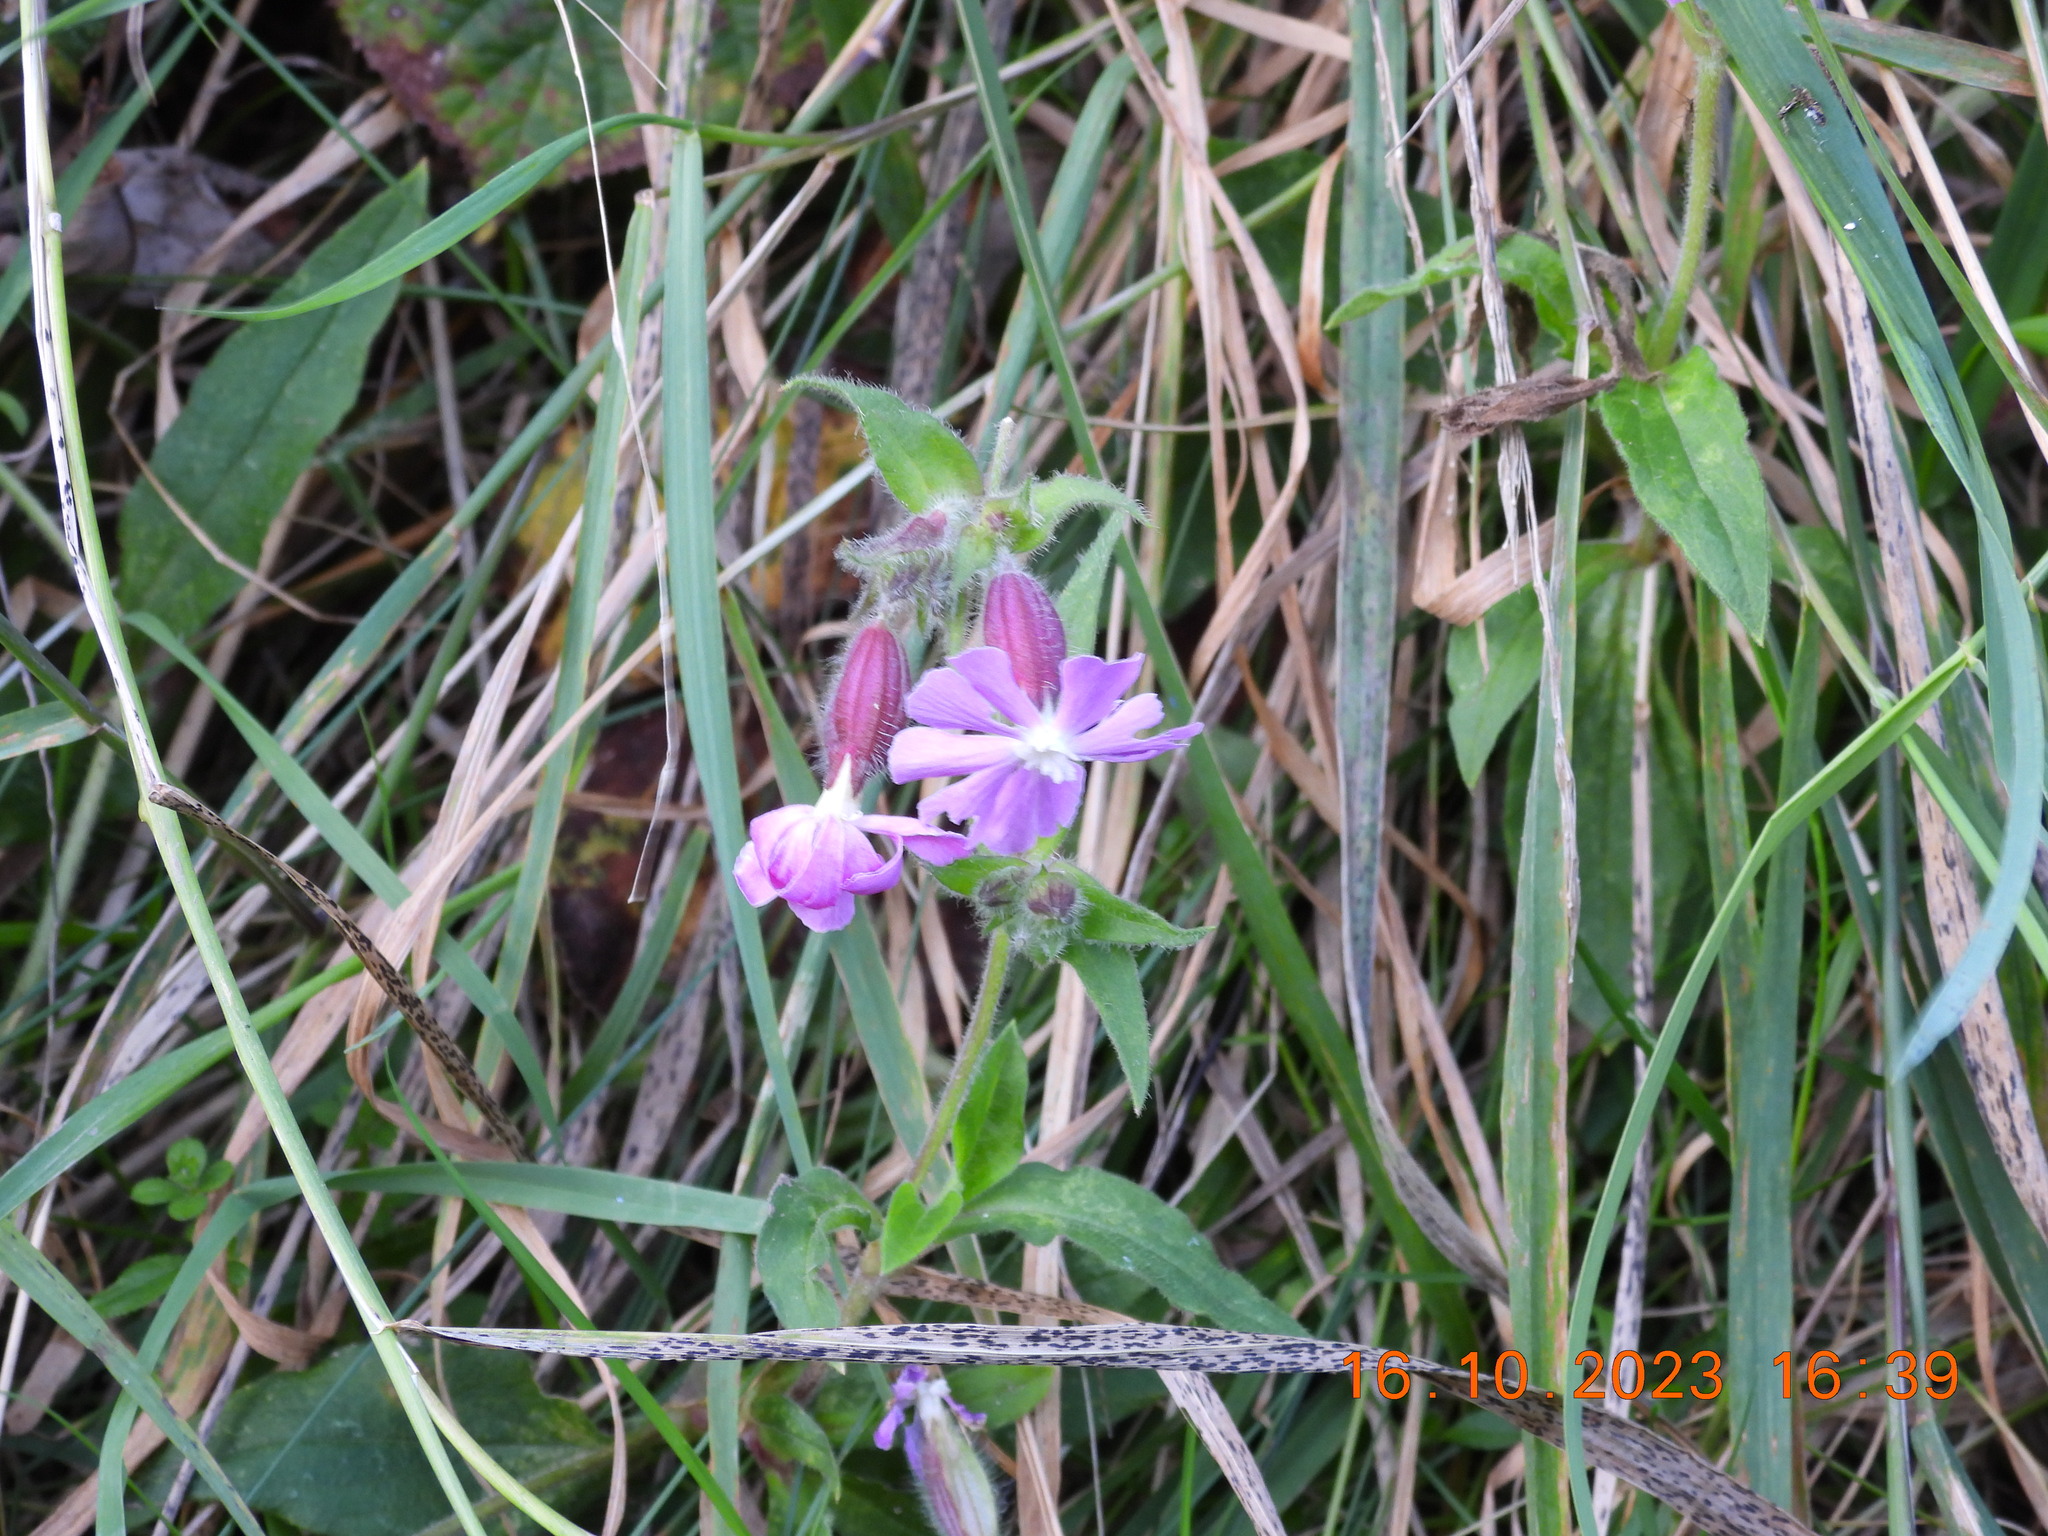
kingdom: Plantae
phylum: Tracheophyta
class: Magnoliopsida
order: Caryophyllales
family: Caryophyllaceae
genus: Silene
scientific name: Silene dioica
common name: Red campion
